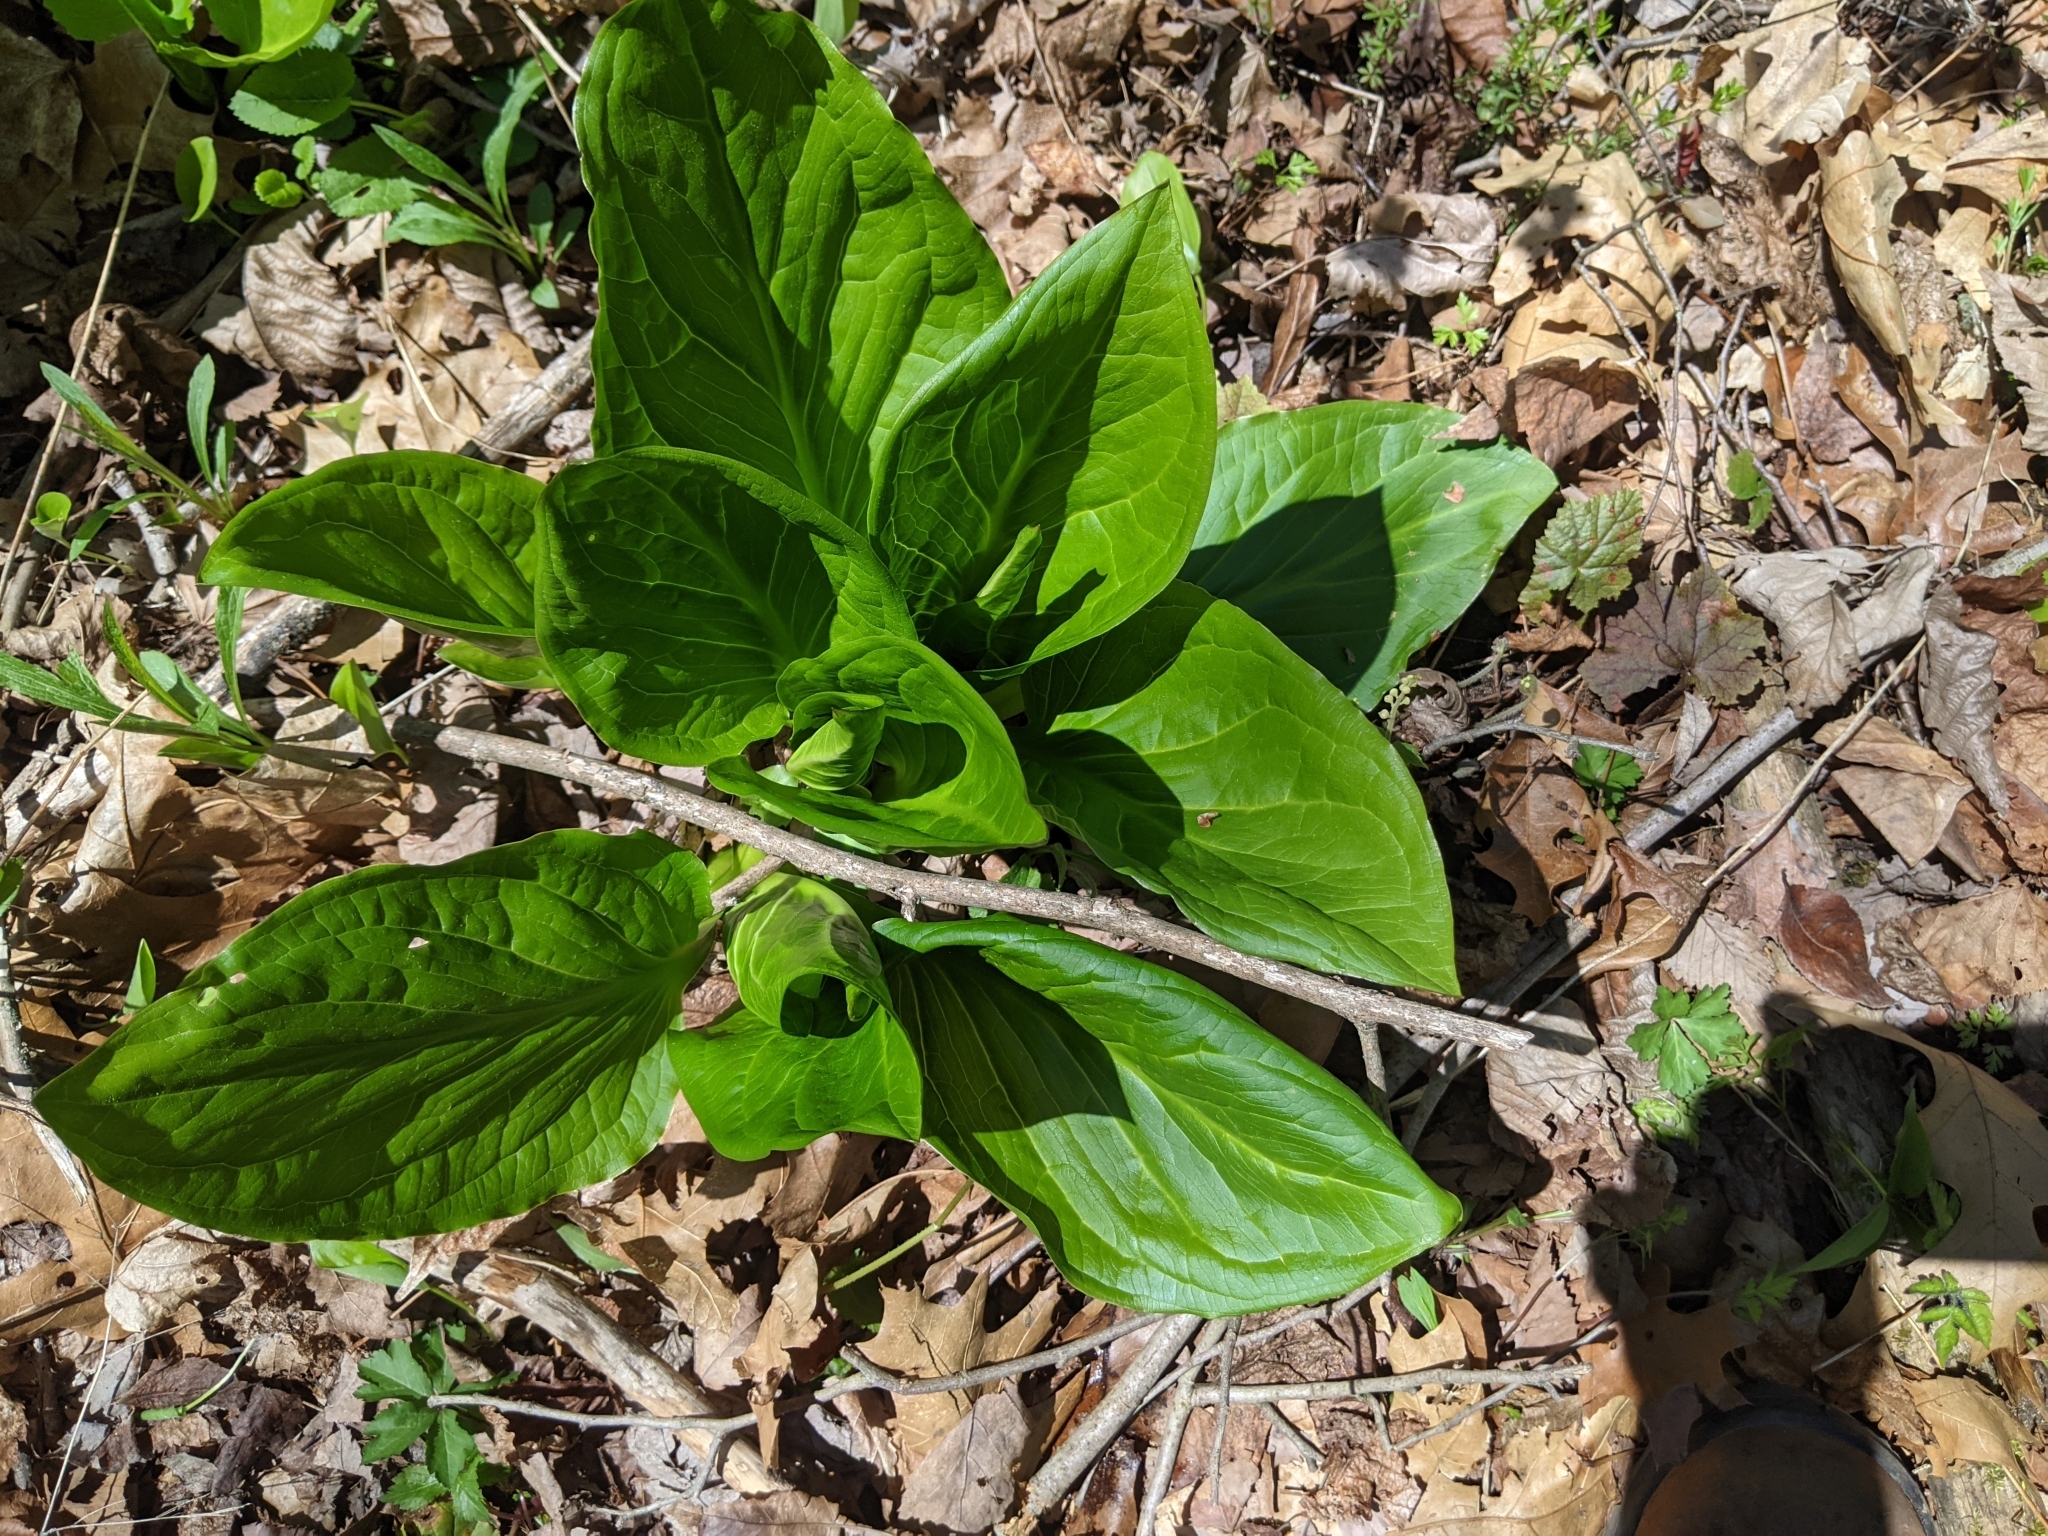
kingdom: Plantae
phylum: Tracheophyta
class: Liliopsida
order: Alismatales
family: Araceae
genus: Symplocarpus
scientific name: Symplocarpus foetidus
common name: Eastern skunk cabbage
